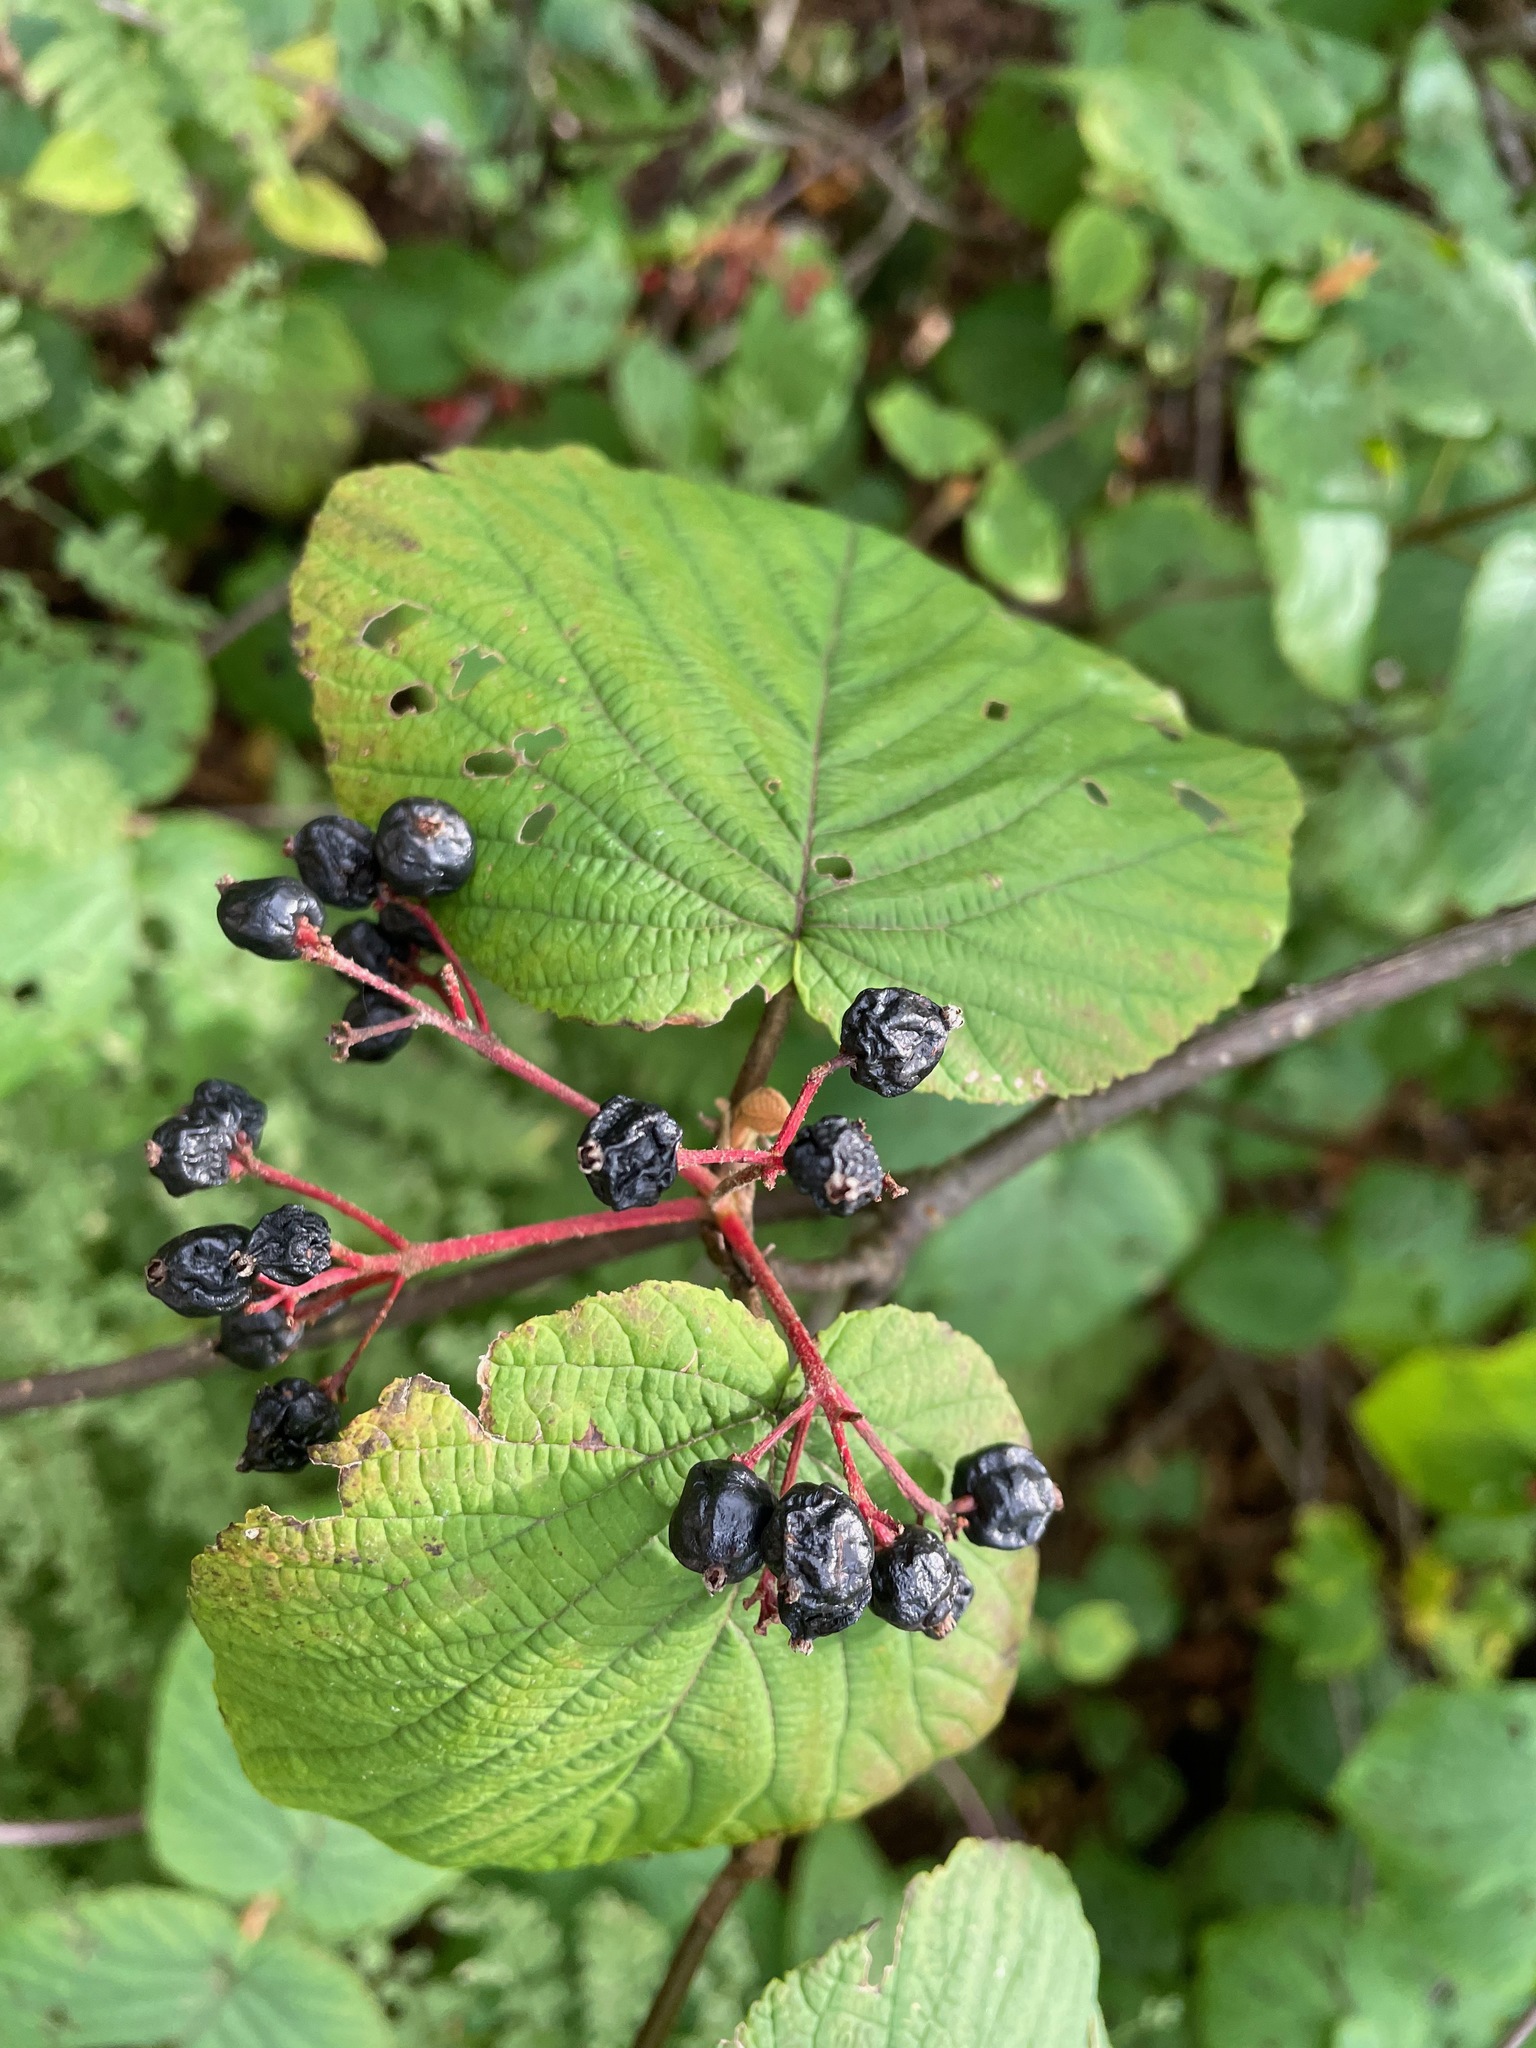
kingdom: Plantae
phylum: Tracheophyta
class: Magnoliopsida
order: Dipsacales
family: Viburnaceae
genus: Viburnum
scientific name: Viburnum lantanoides
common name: Hobblebush
